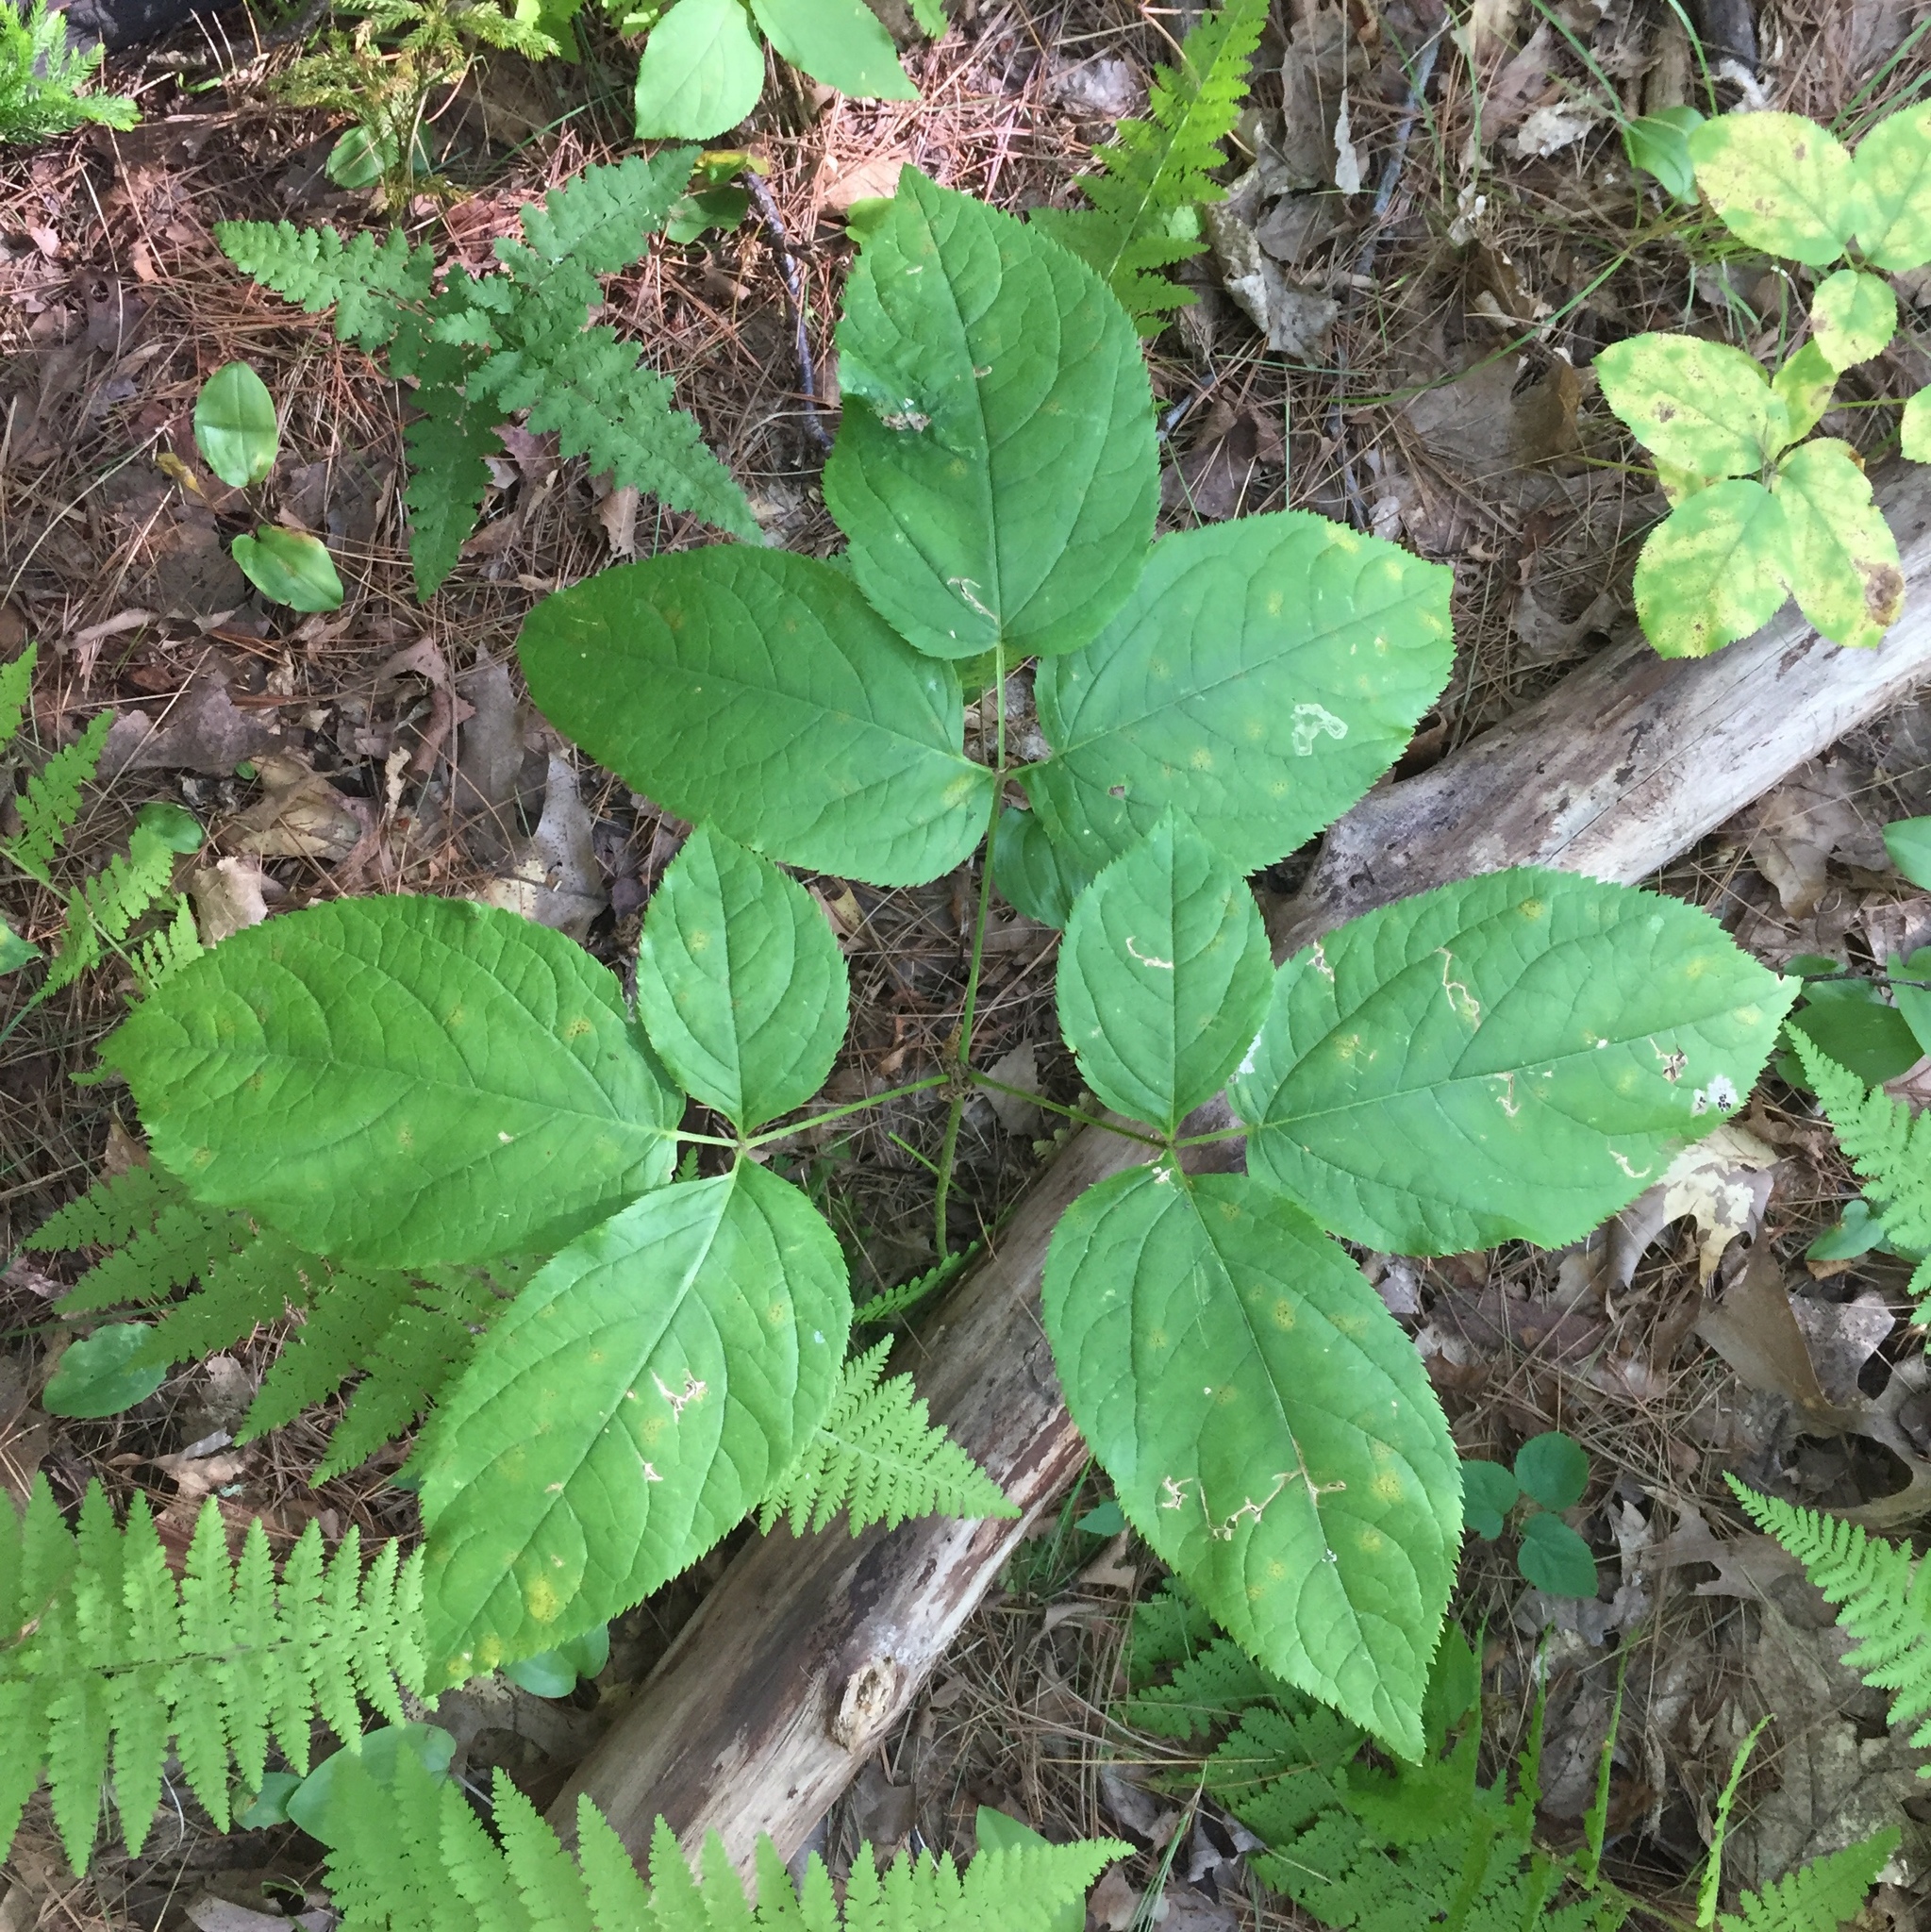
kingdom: Plantae
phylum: Tracheophyta
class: Magnoliopsida
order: Apiales
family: Araliaceae
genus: Aralia
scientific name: Aralia nudicaulis
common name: Wild sarsaparilla
